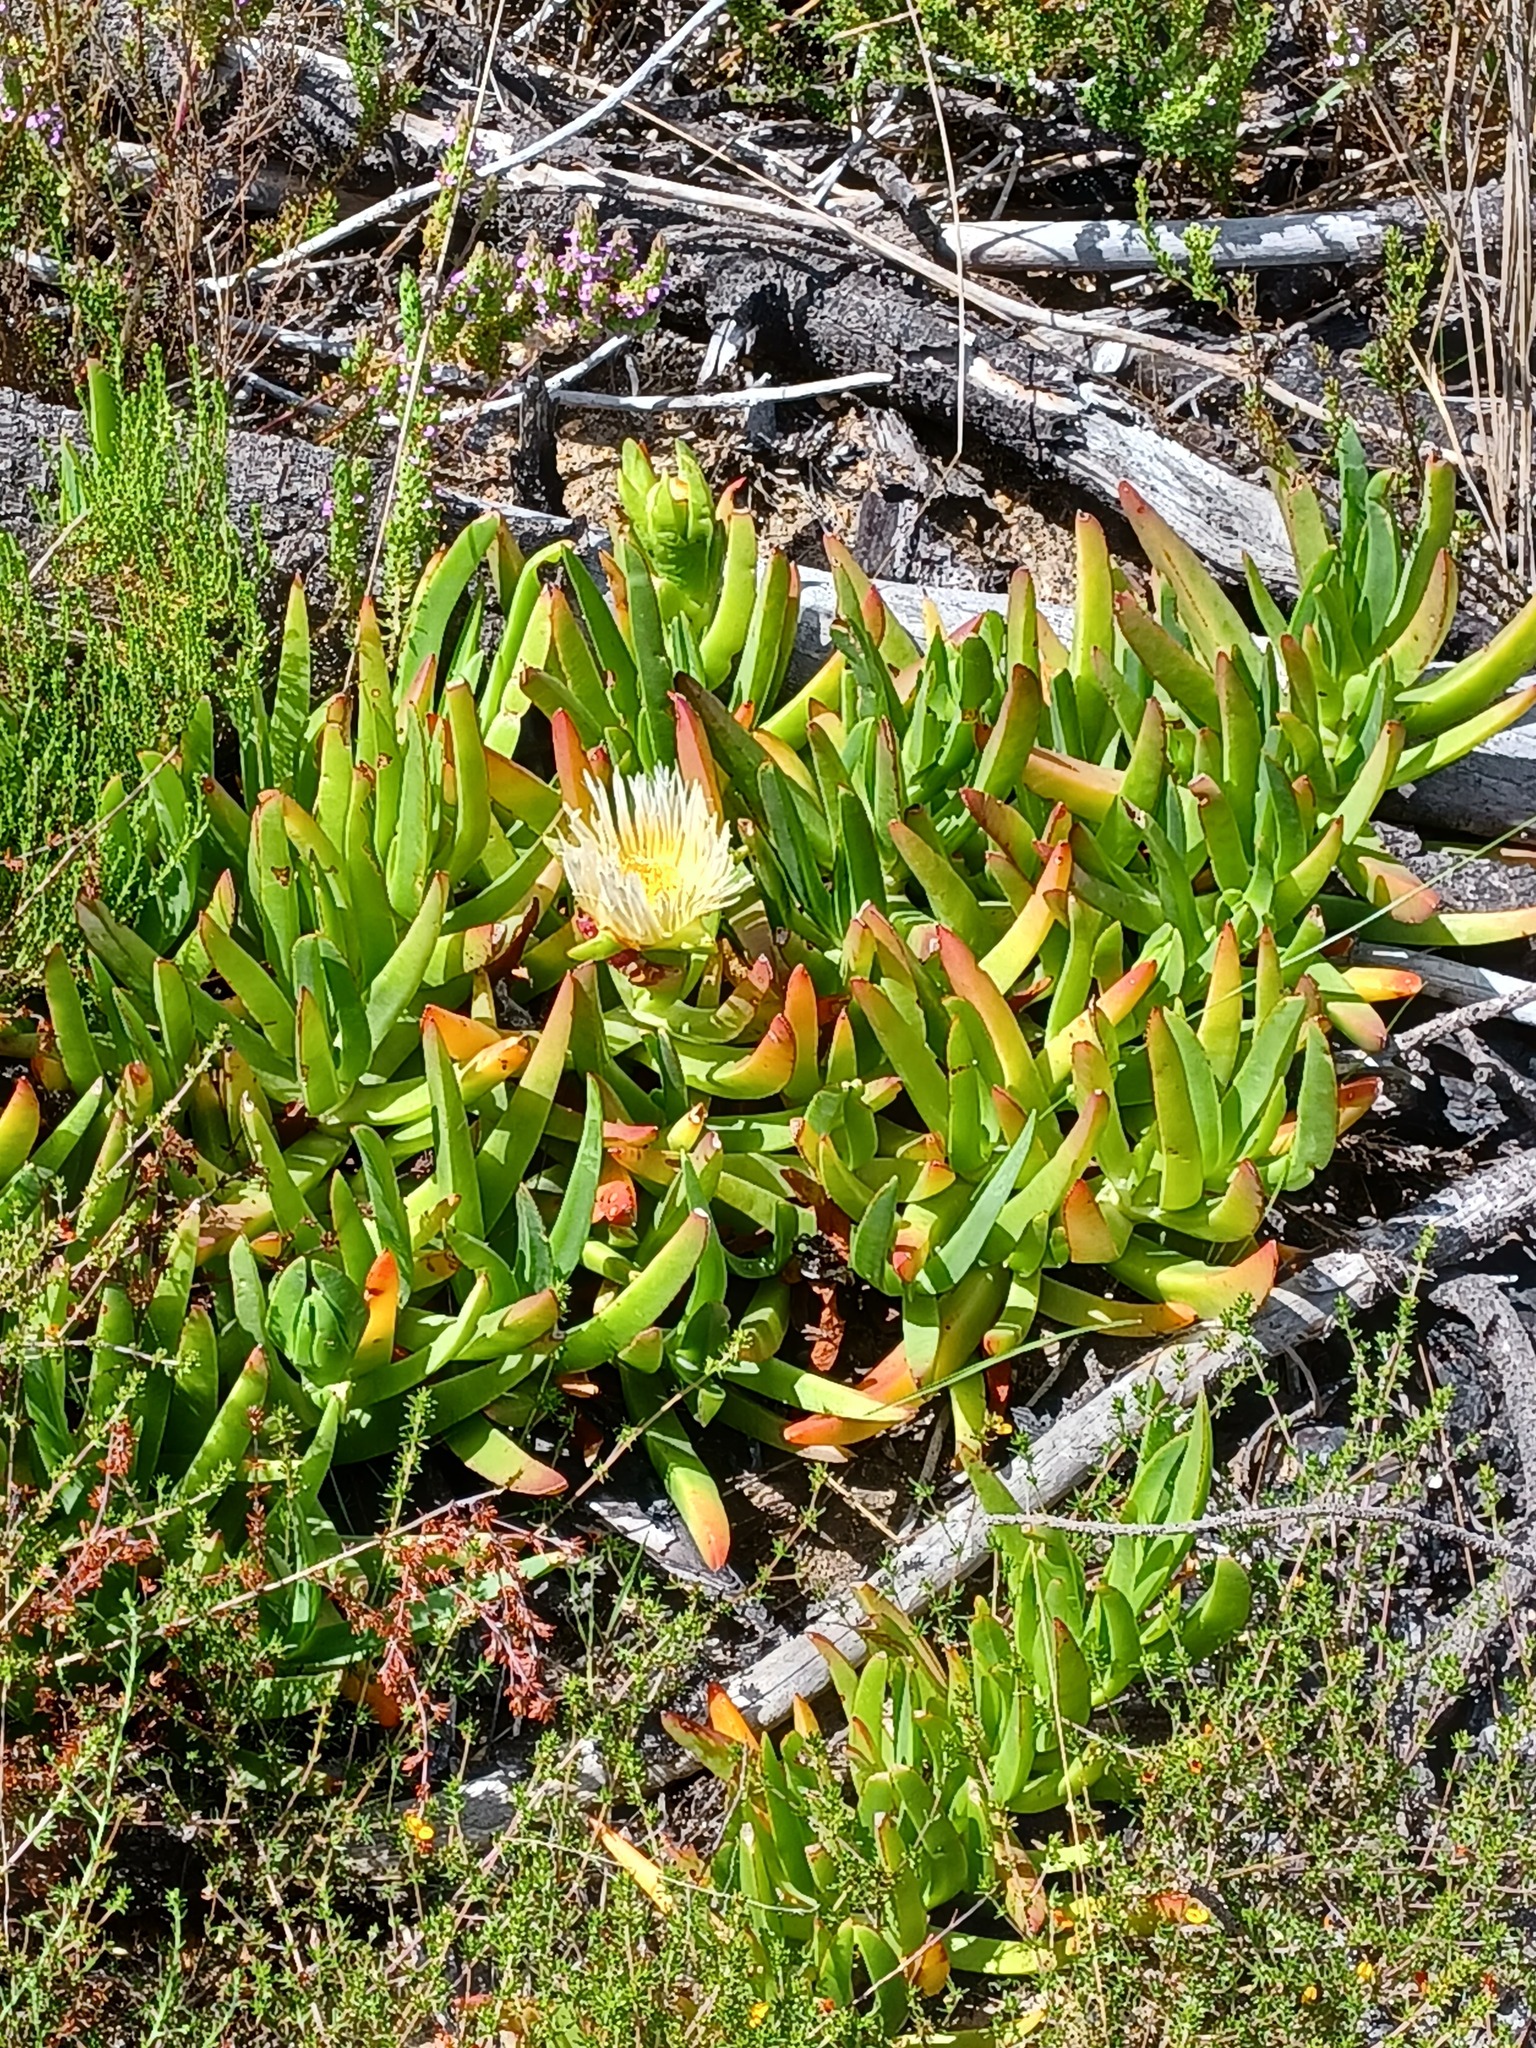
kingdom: Plantae
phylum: Tracheophyta
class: Magnoliopsida
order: Caryophyllales
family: Aizoaceae
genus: Carpobrotus
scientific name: Carpobrotus edulis
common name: Hottentot-fig
